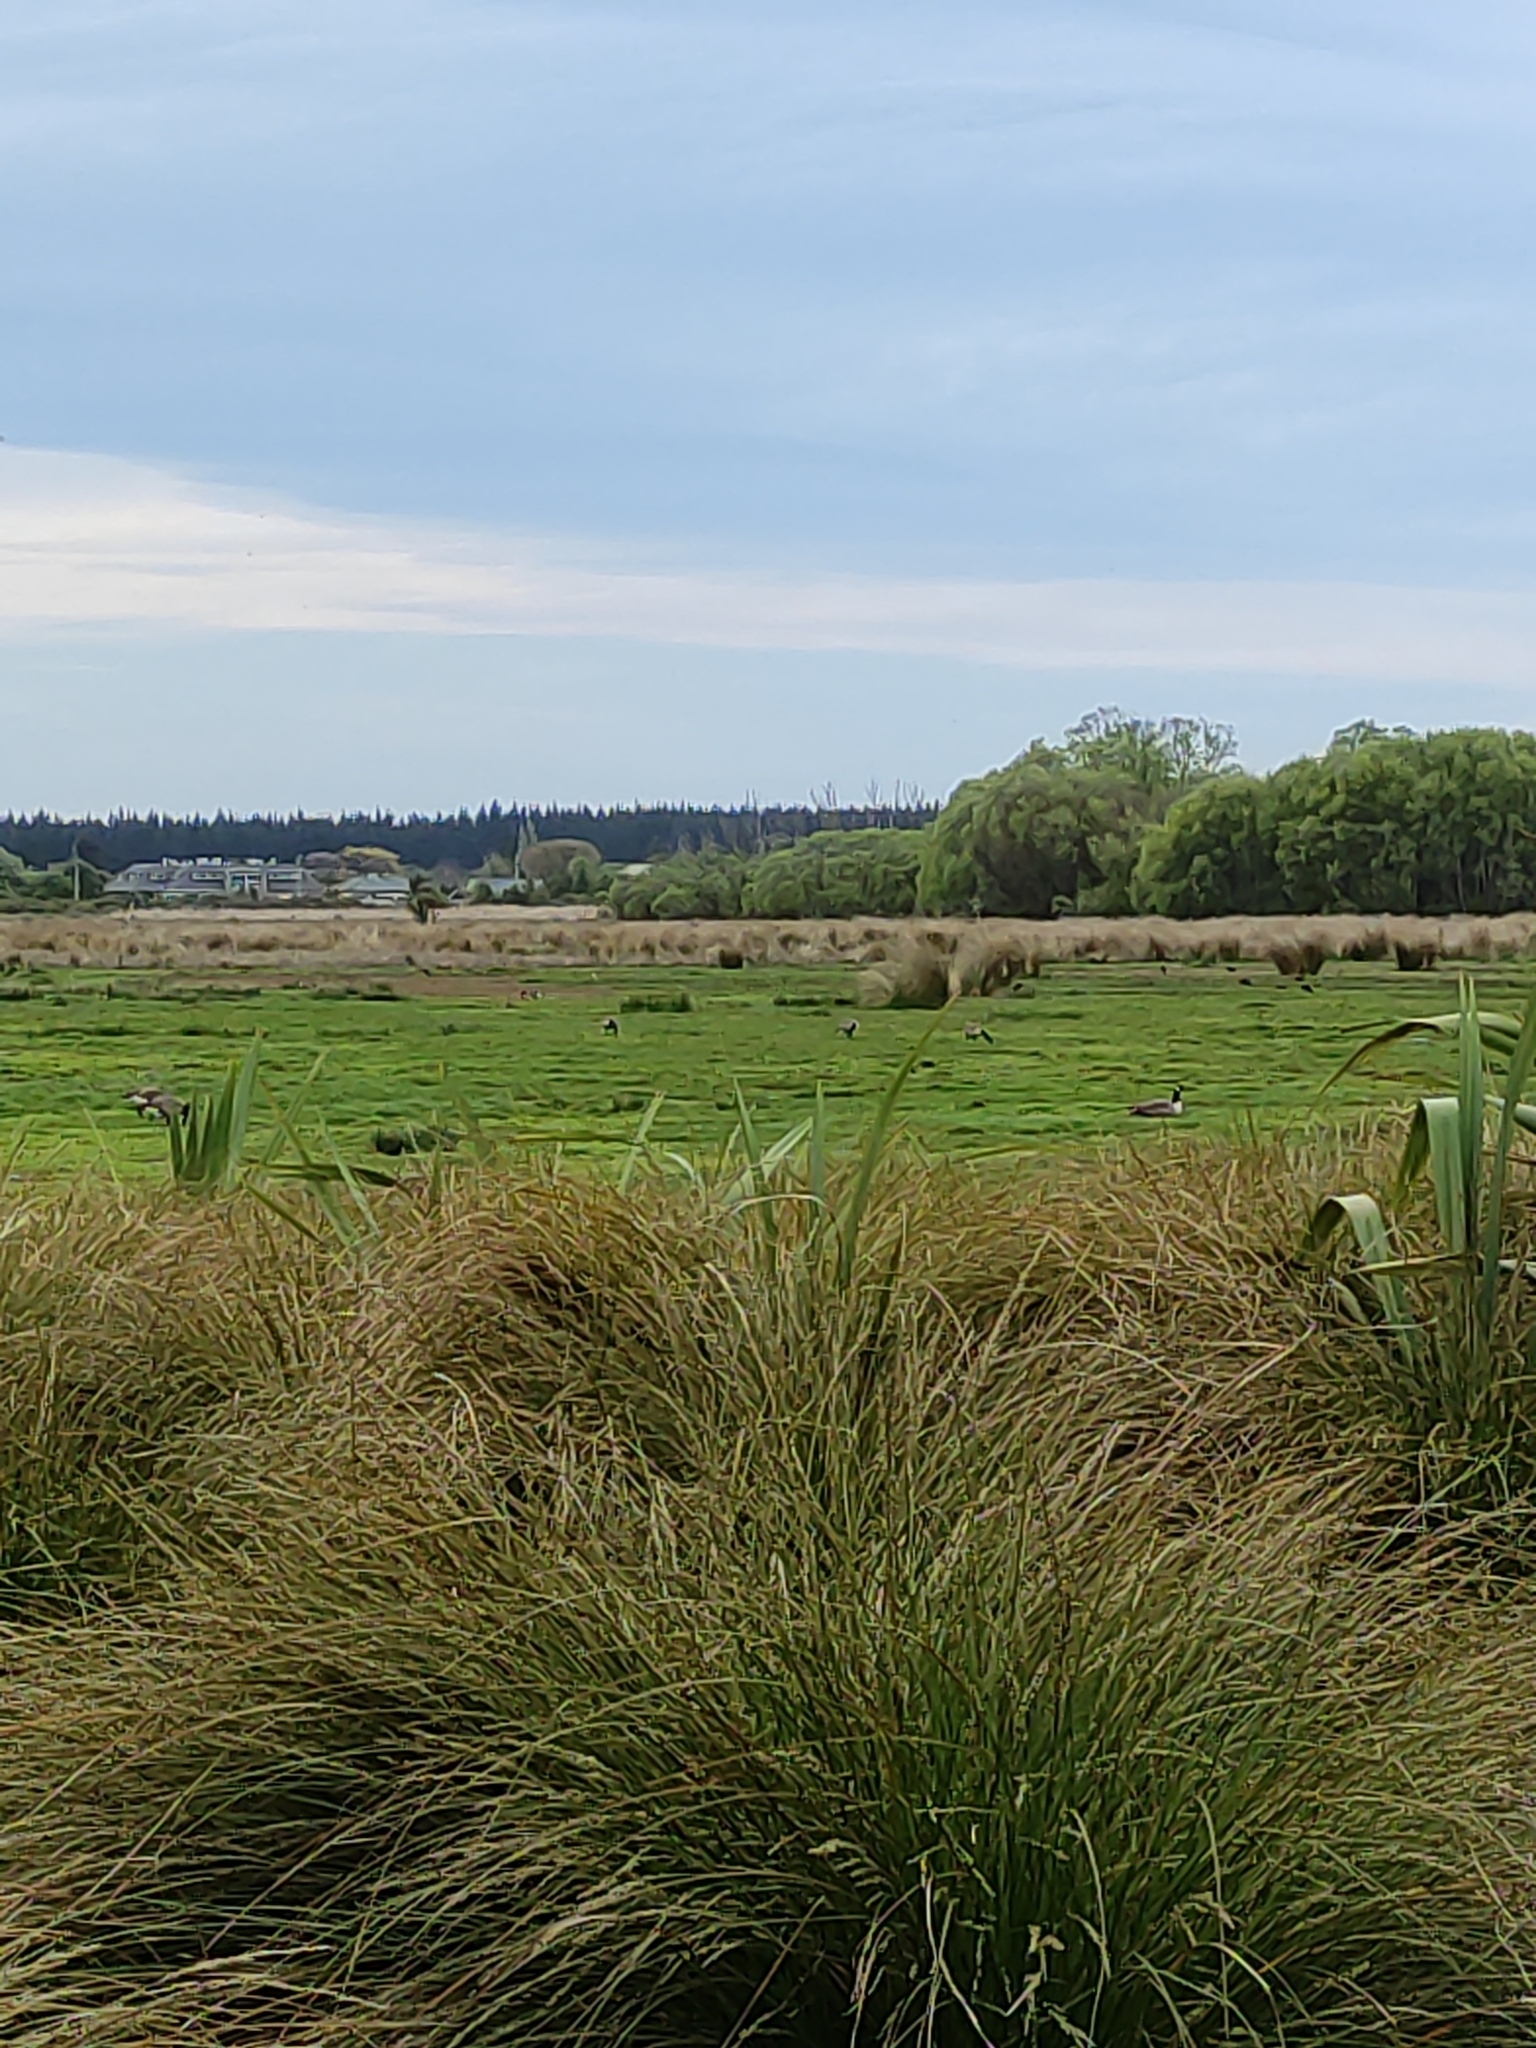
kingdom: Animalia
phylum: Chordata
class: Aves
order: Anseriformes
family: Anatidae
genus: Branta
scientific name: Branta canadensis
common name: Canada goose
